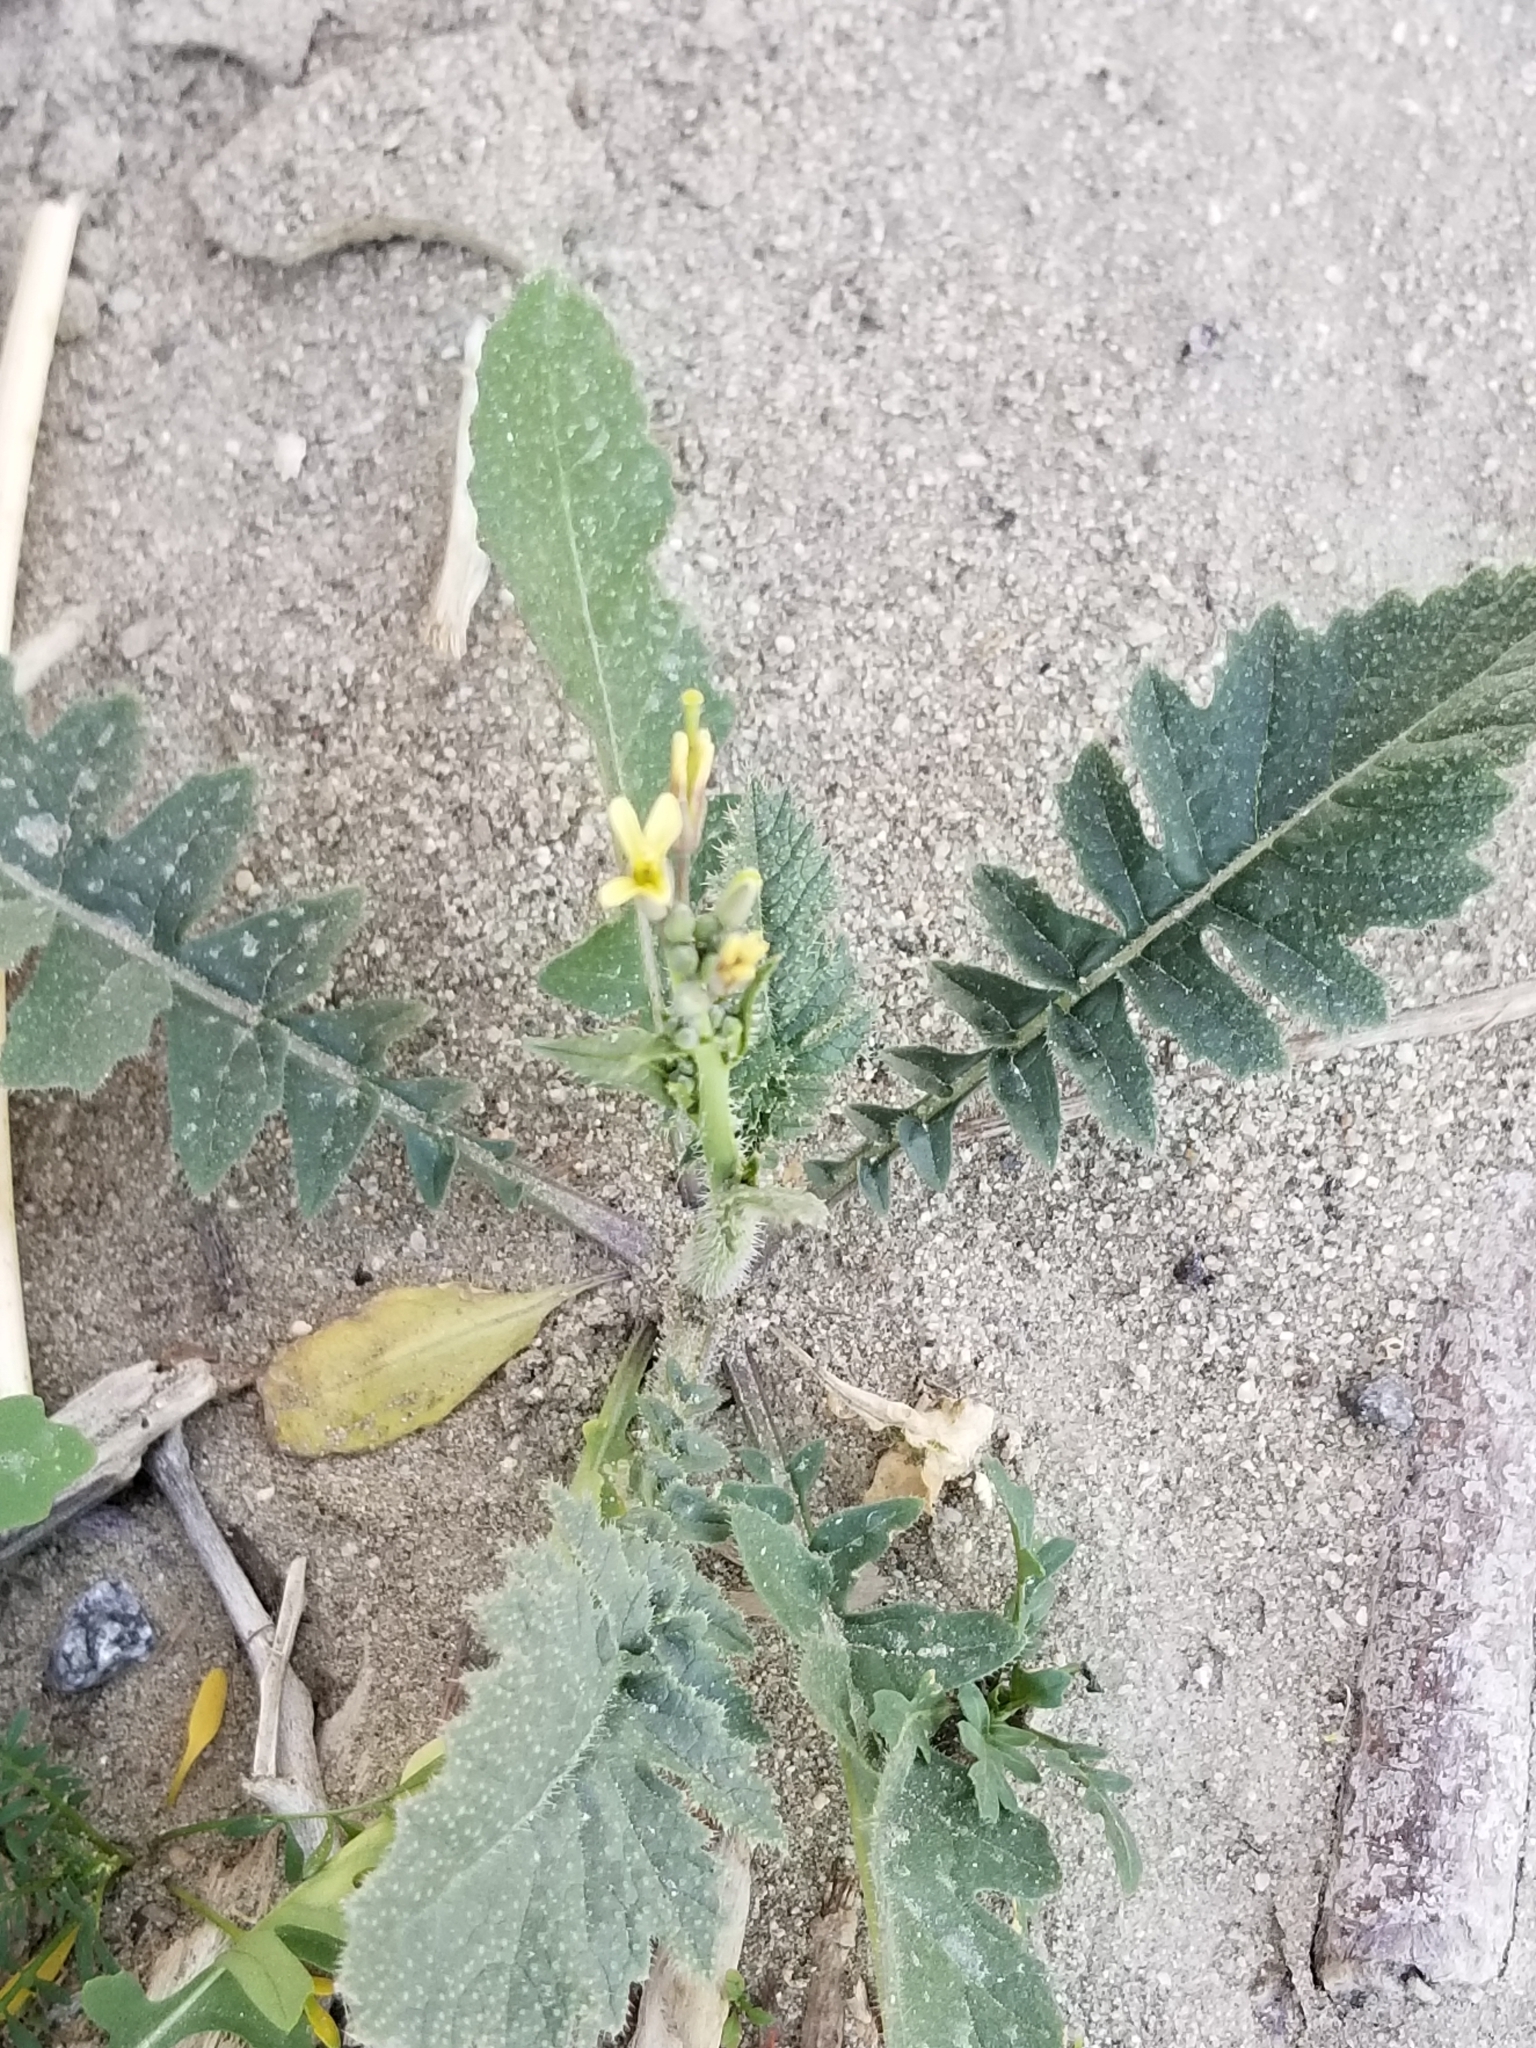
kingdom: Plantae
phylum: Tracheophyta
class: Magnoliopsida
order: Brassicales
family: Brassicaceae
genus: Brassica
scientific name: Brassica tournefortii
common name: Pale cabbage
